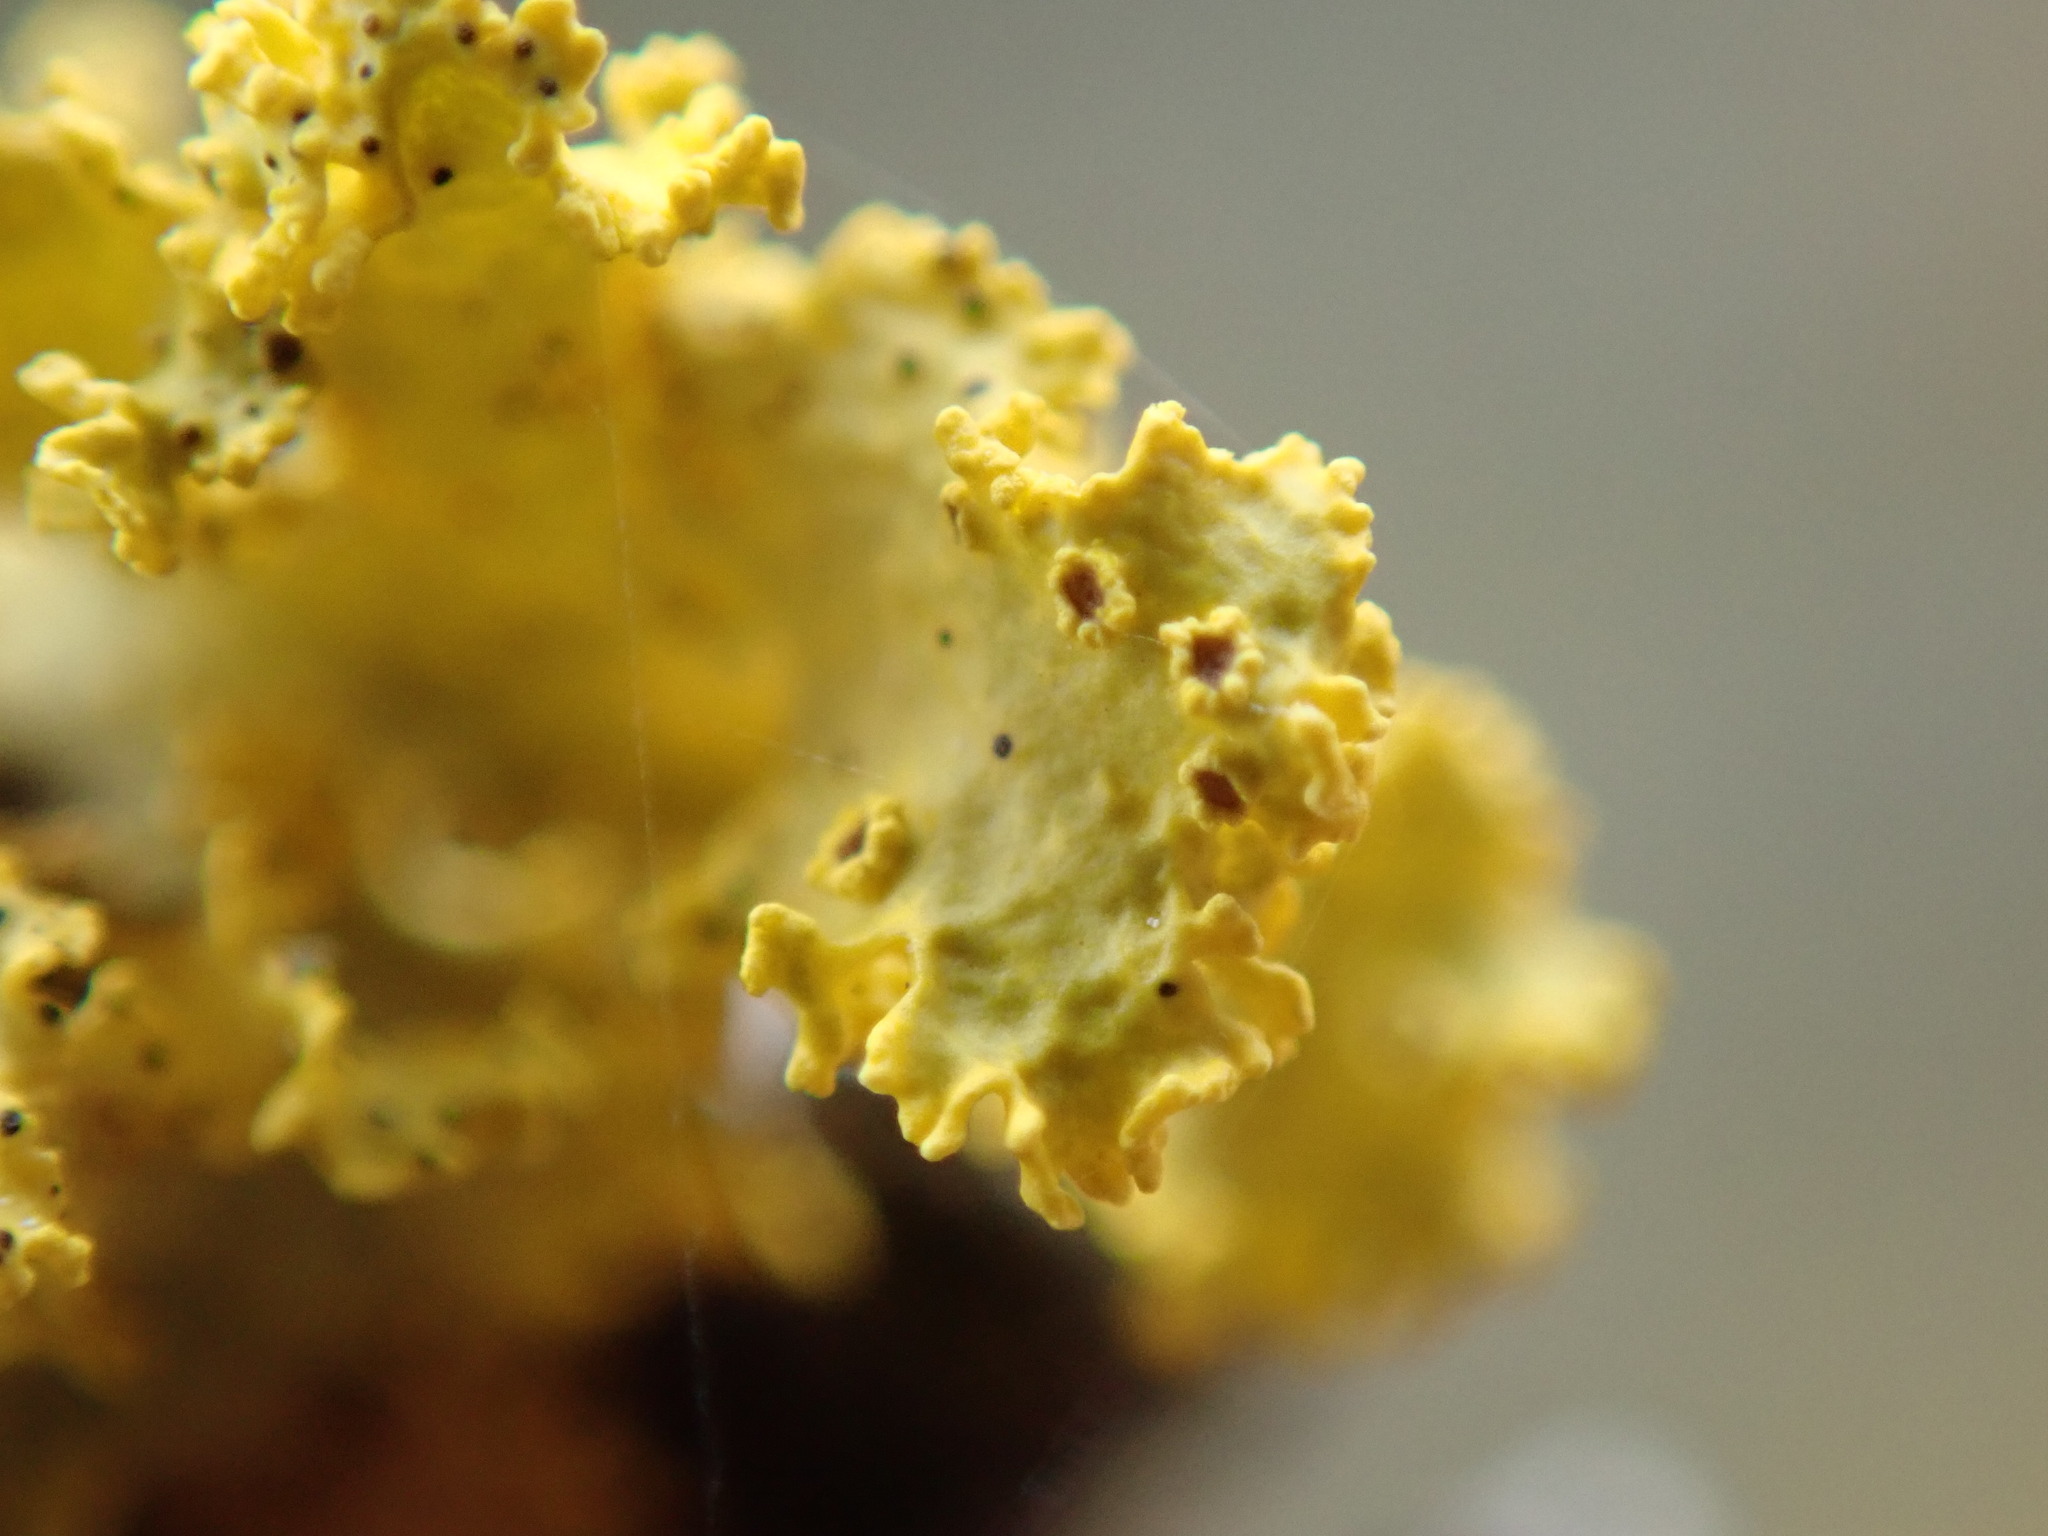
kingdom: Fungi
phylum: Ascomycota
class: Lecanoromycetes
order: Lecanorales
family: Parmeliaceae
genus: Vulpicida
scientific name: Vulpicida canadensis
